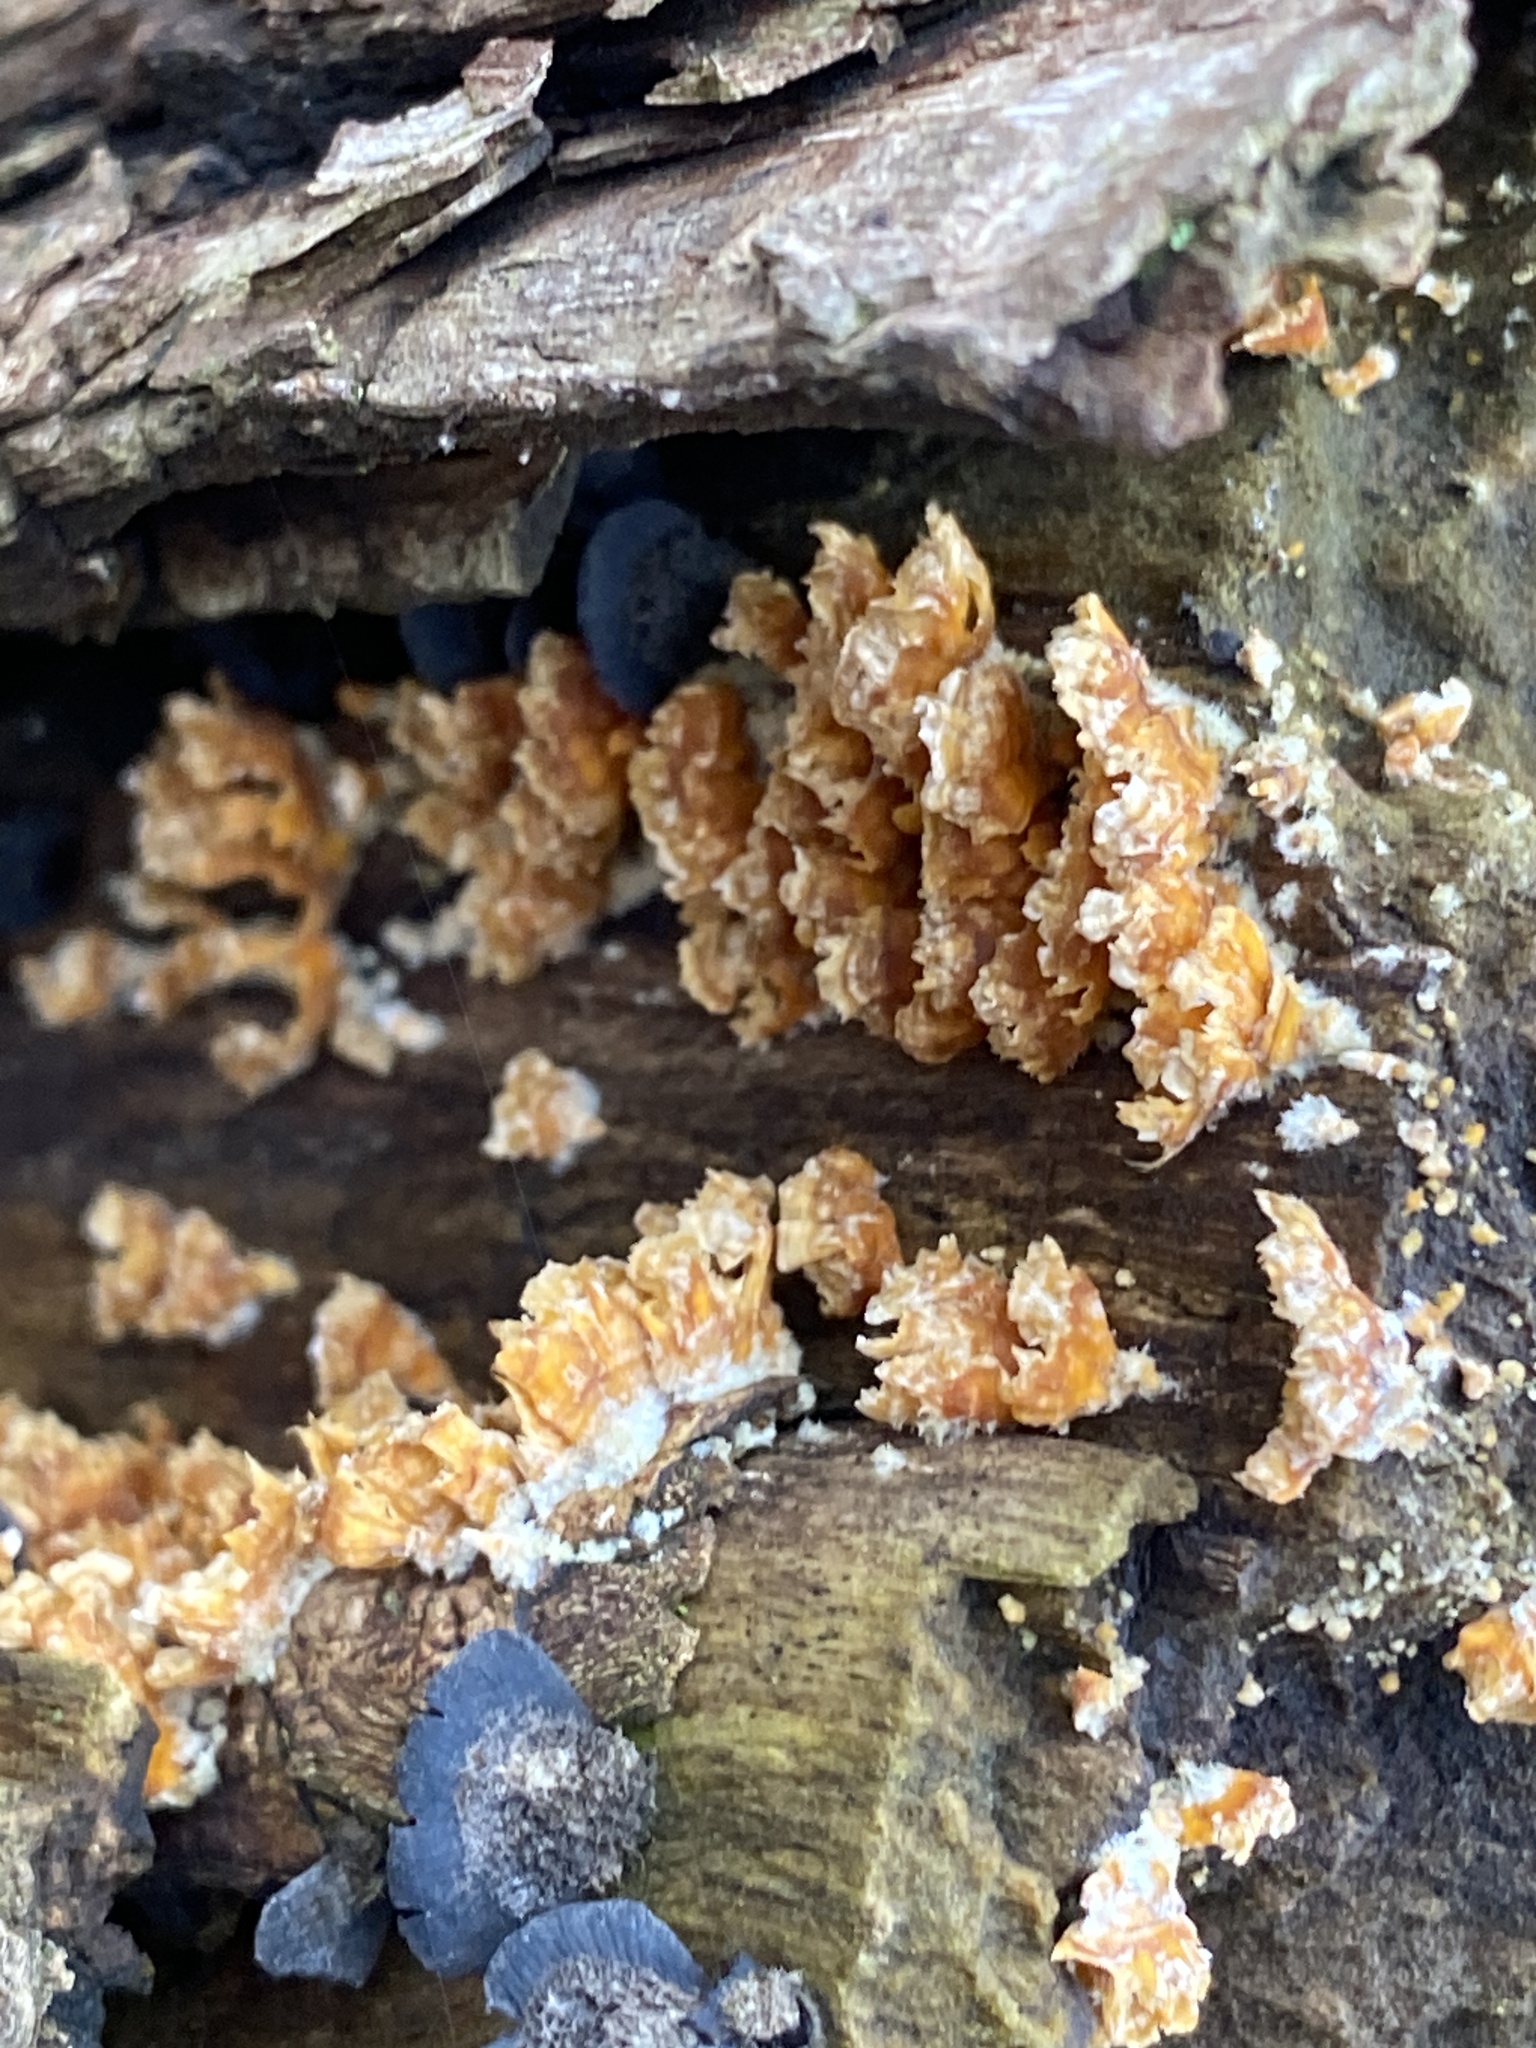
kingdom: Fungi
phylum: Basidiomycota
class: Agaricomycetes
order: Russulales
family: Stereaceae
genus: Stereum
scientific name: Stereum complicatum
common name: Crowded parchment
